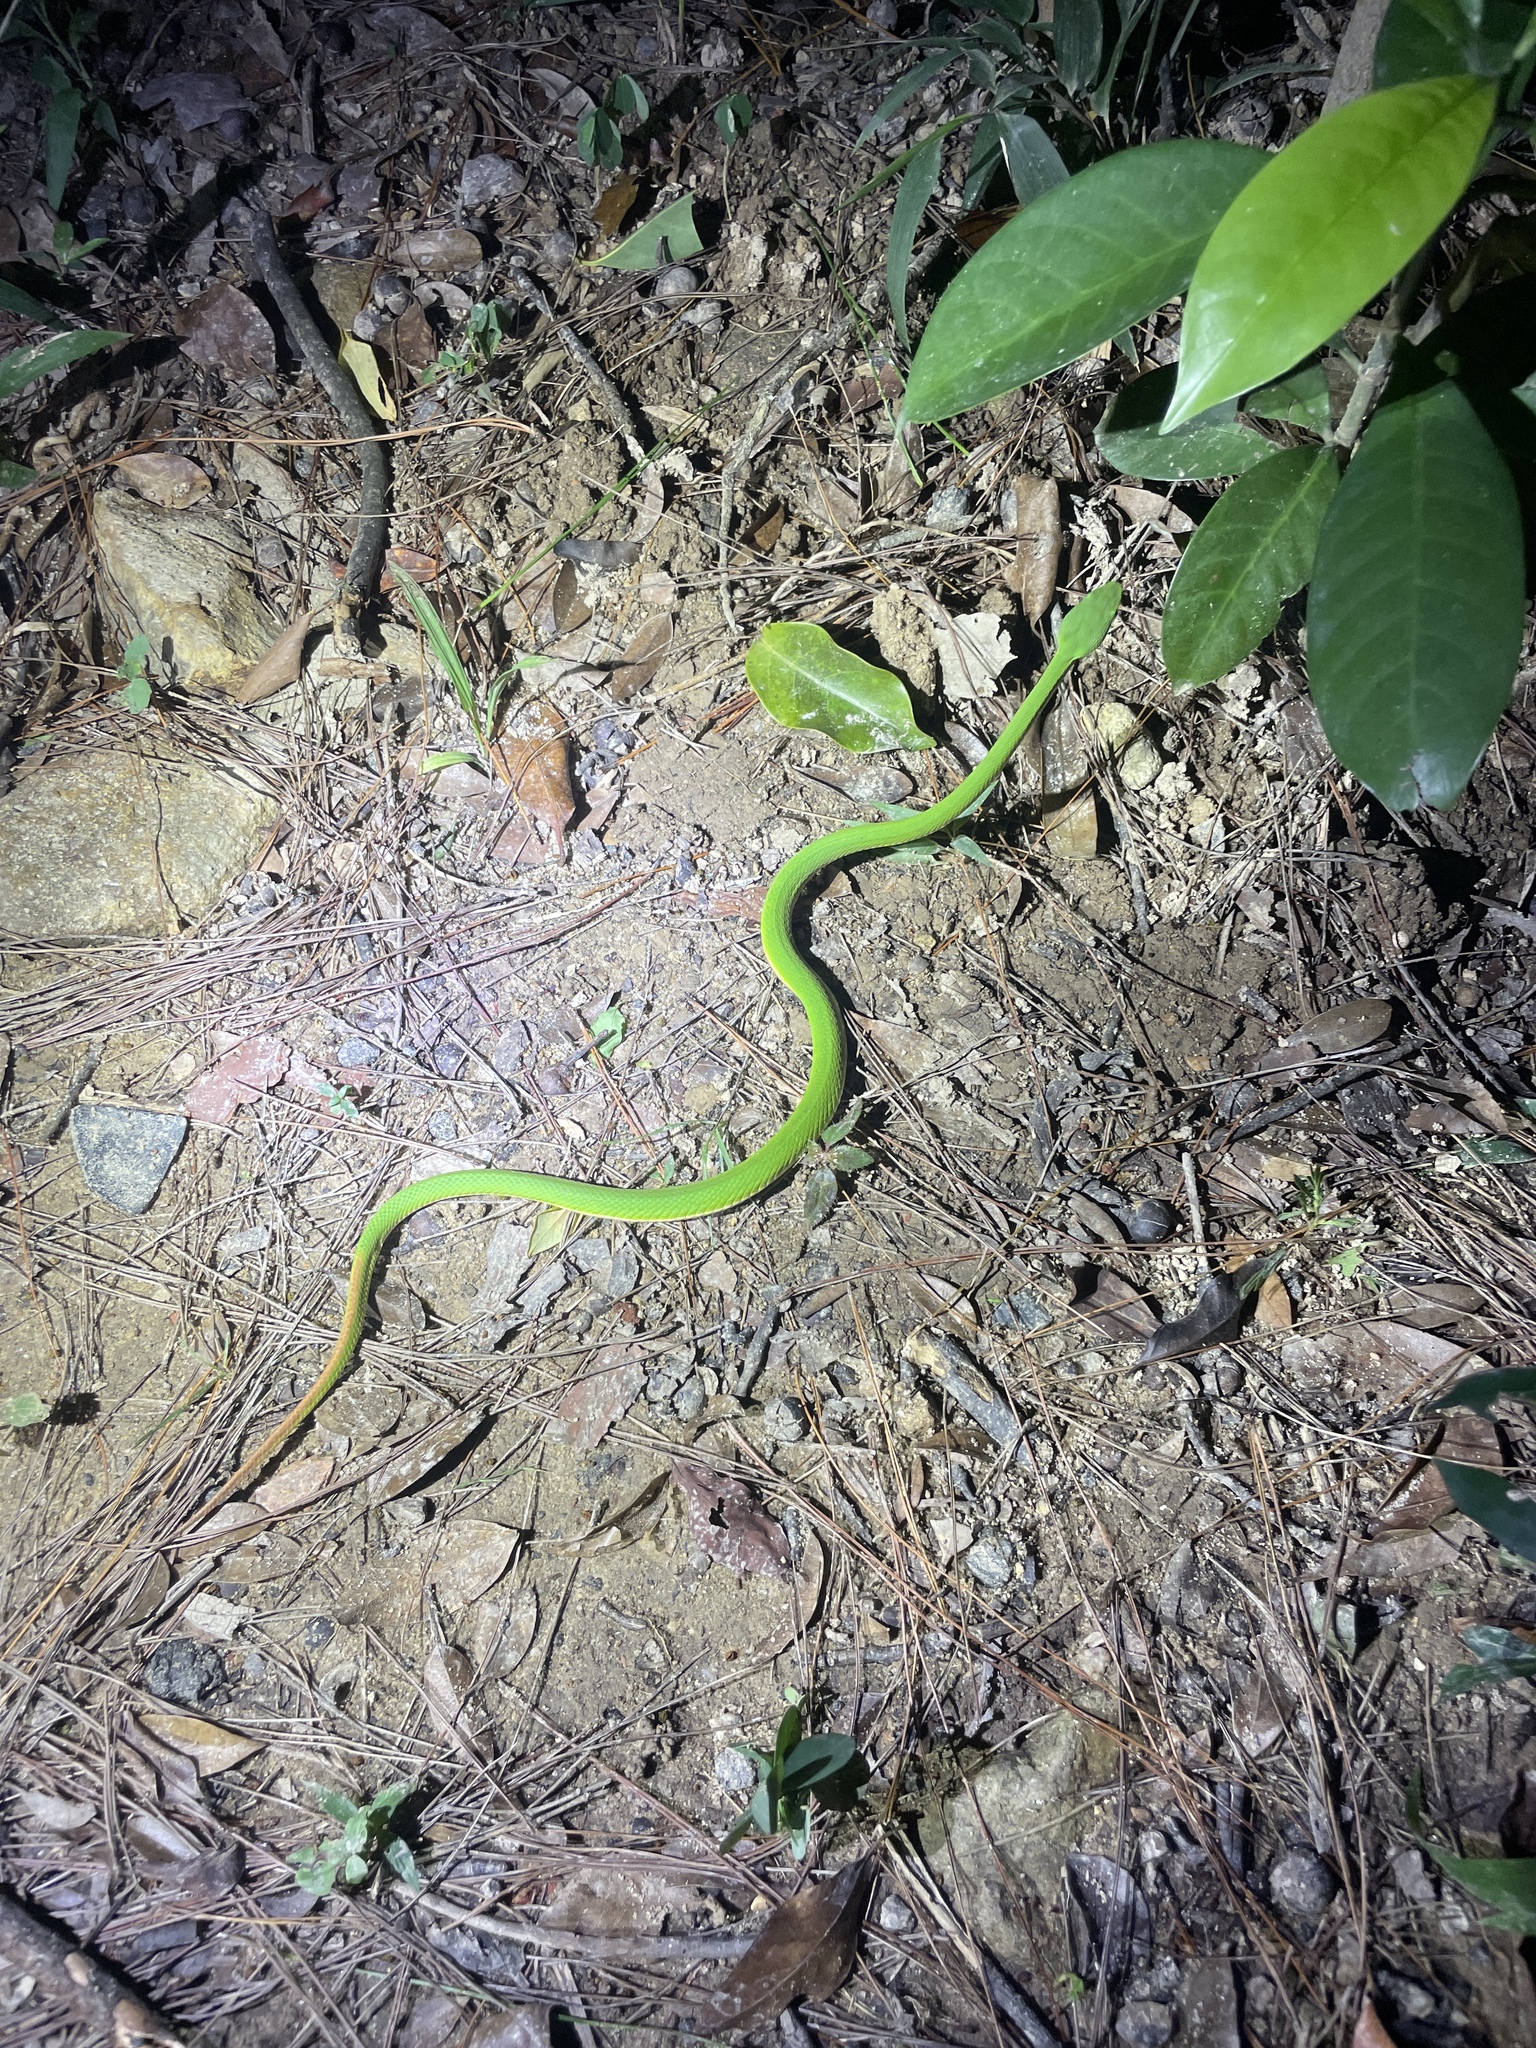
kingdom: Animalia
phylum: Chordata
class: Squamata
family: Viperidae
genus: Trimeresurus
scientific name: Trimeresurus albolabris
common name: White-lipped pitviper
